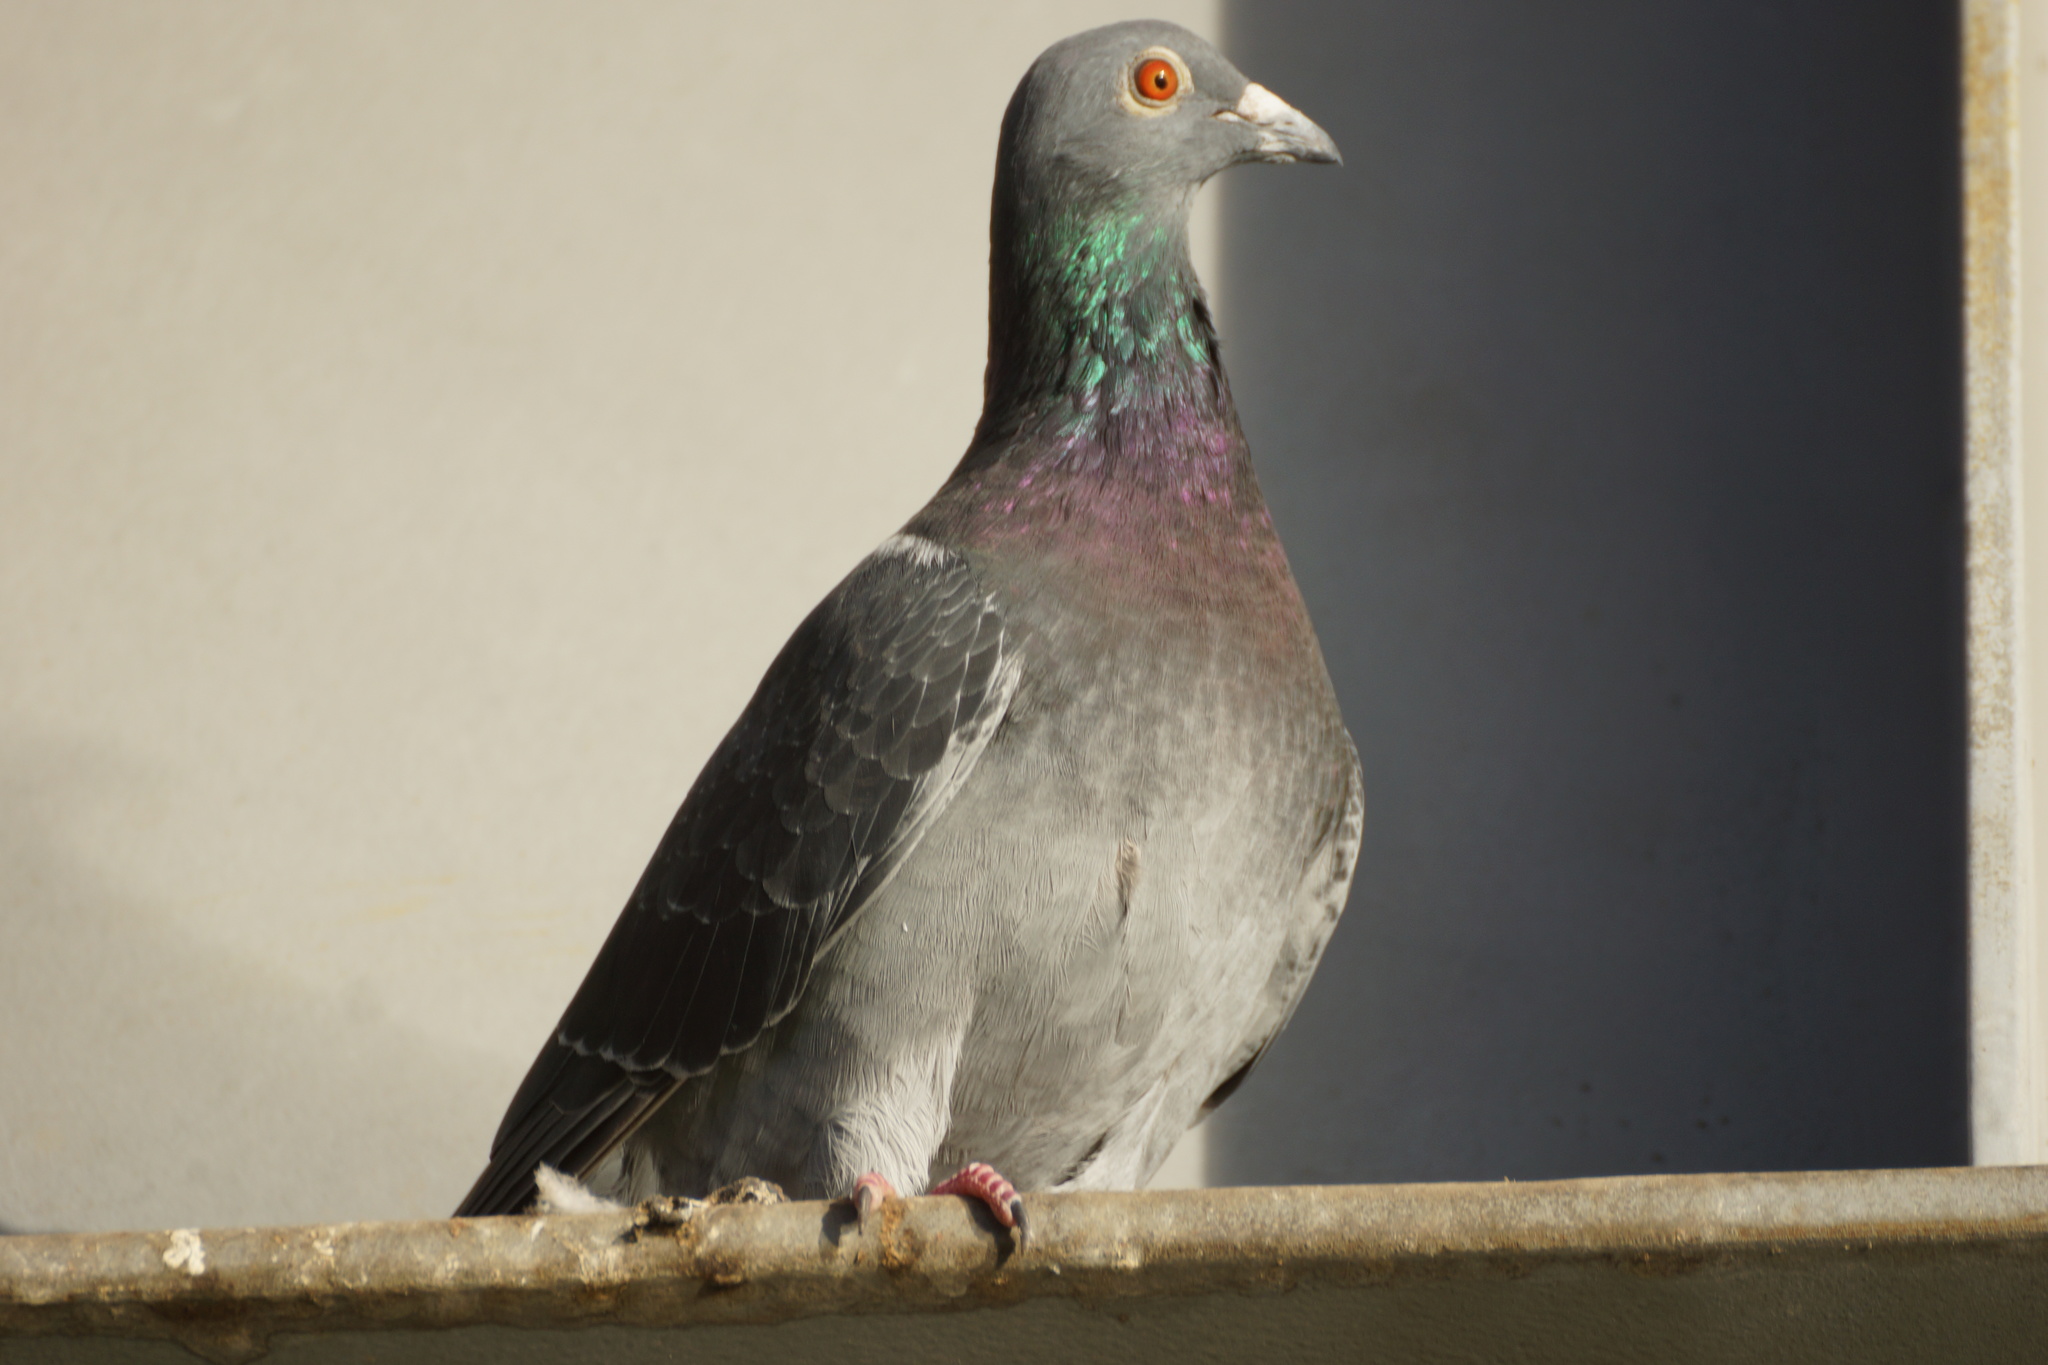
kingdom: Animalia
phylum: Chordata
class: Aves
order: Columbiformes
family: Columbidae
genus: Columba
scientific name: Columba livia
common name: Rock pigeon
